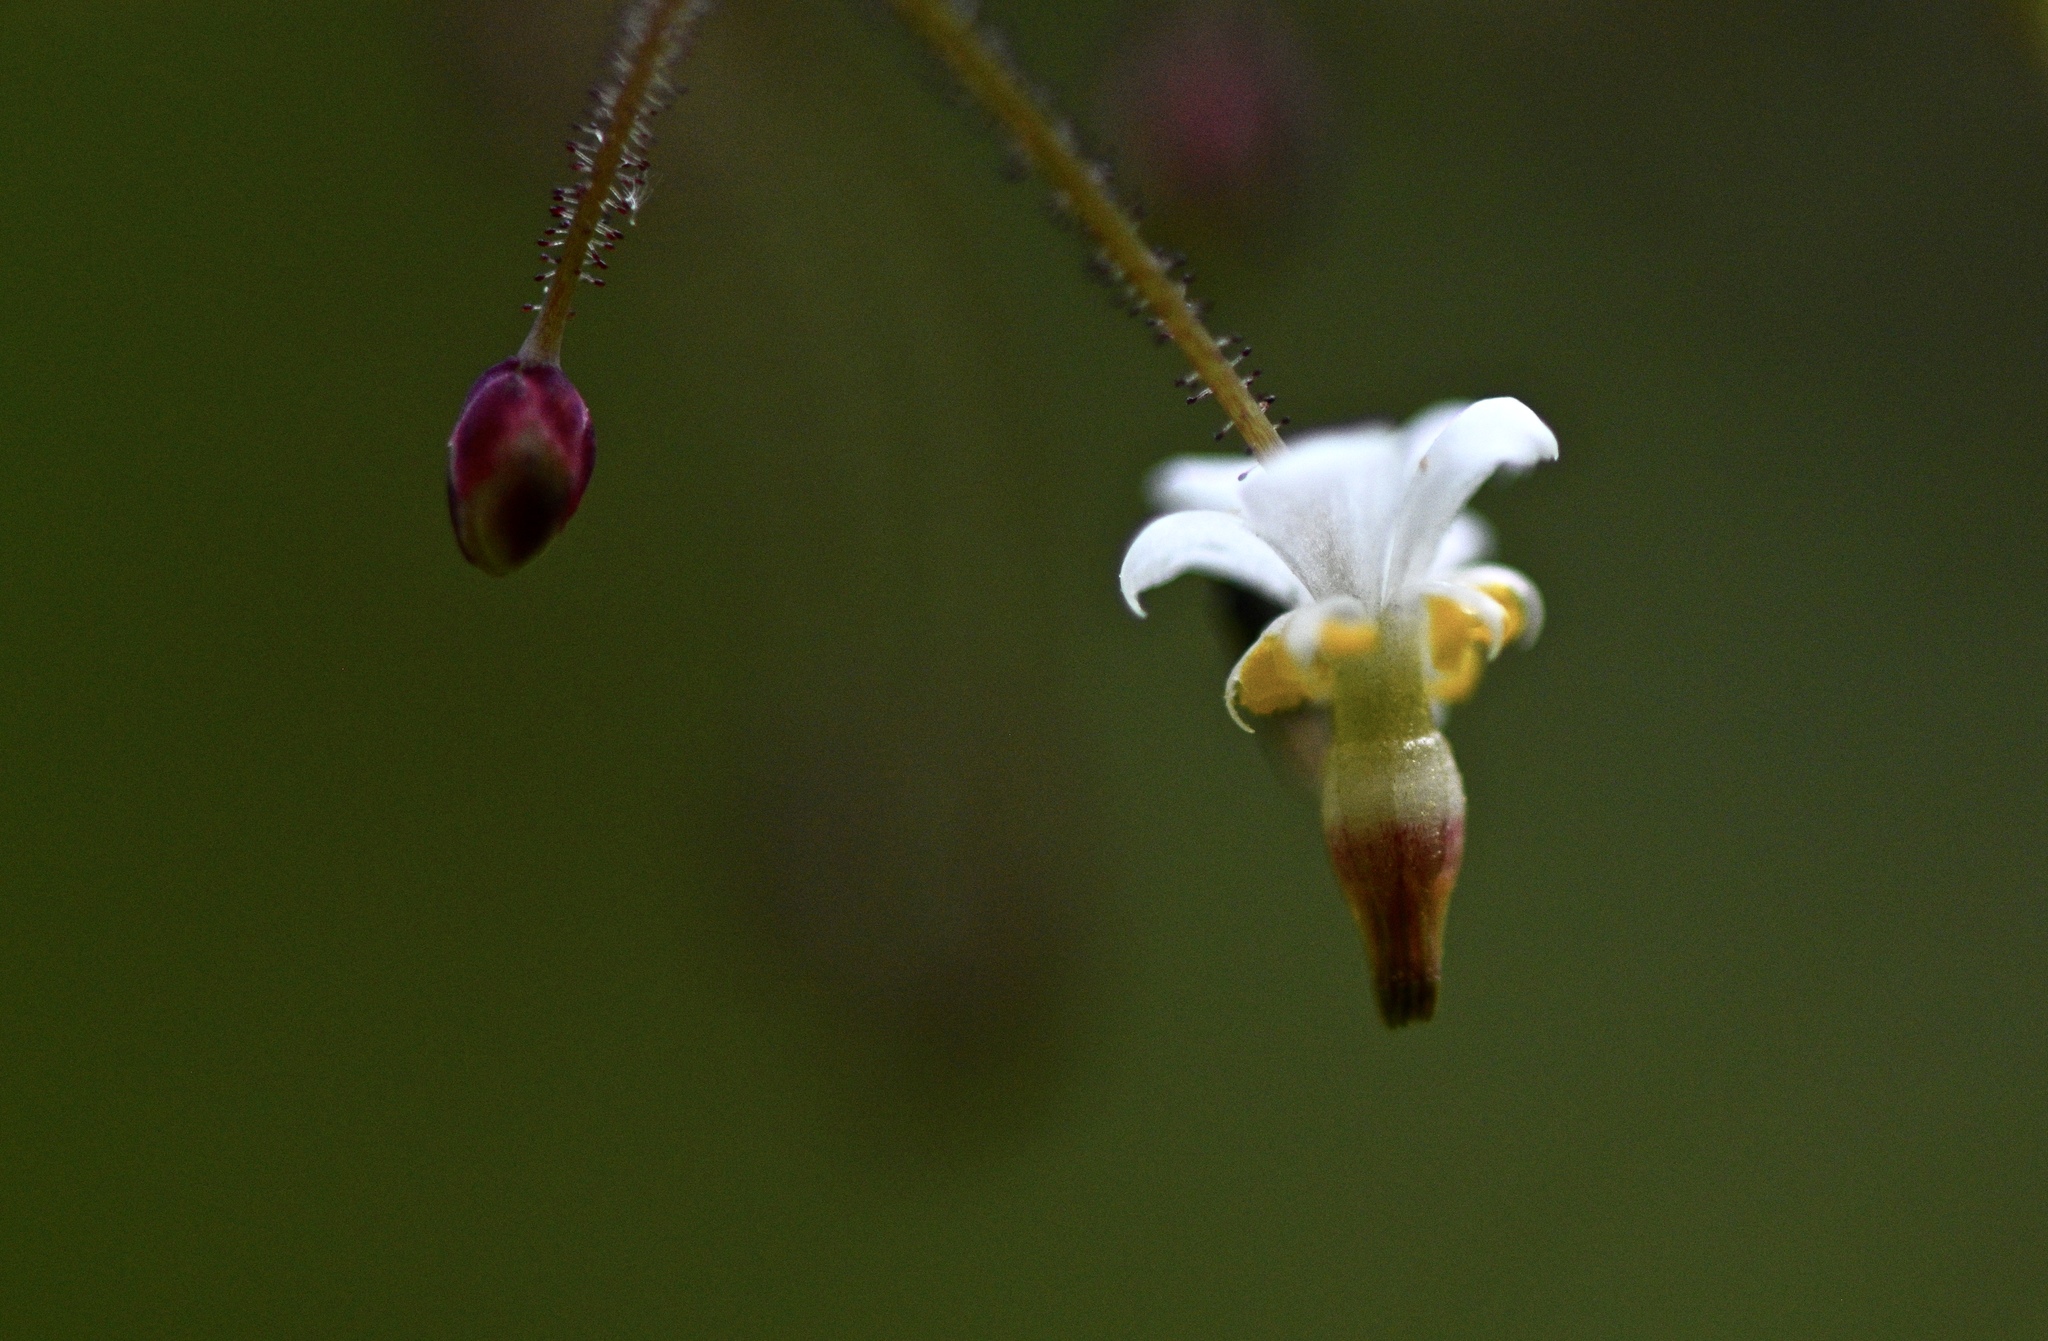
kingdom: Plantae
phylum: Tracheophyta
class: Magnoliopsida
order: Ranunculales
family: Berberidaceae
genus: Vancouveria
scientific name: Vancouveria planipetala
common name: Redwood-ivy
